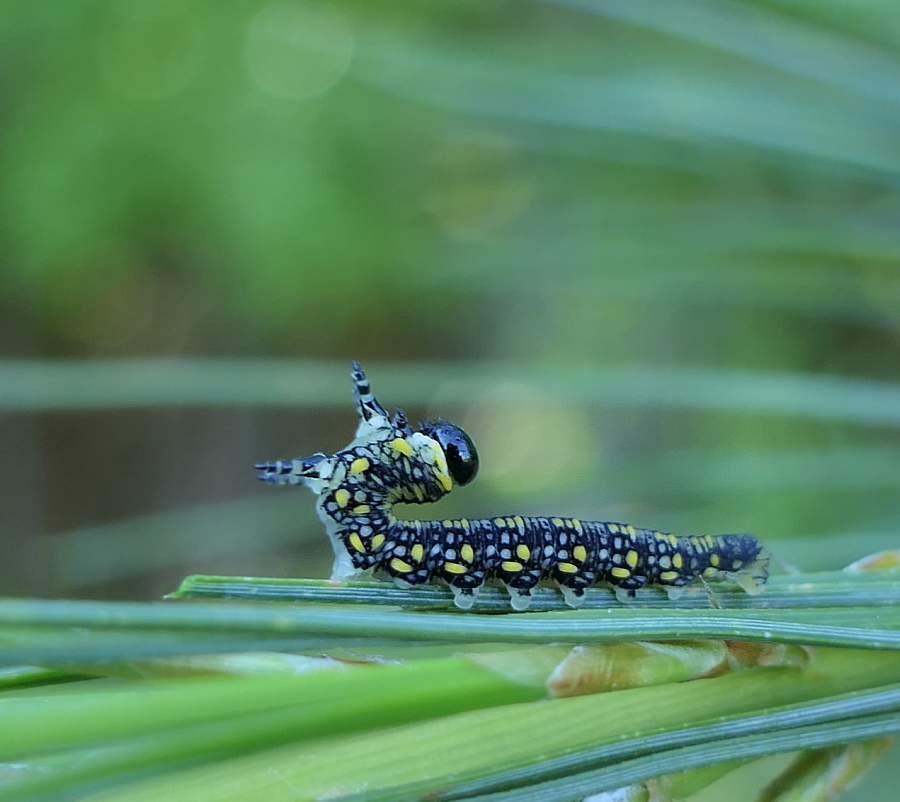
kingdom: Animalia
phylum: Arthropoda
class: Insecta
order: Hymenoptera
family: Diprionidae
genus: Diprion
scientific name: Diprion similis
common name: Pine sawfly
